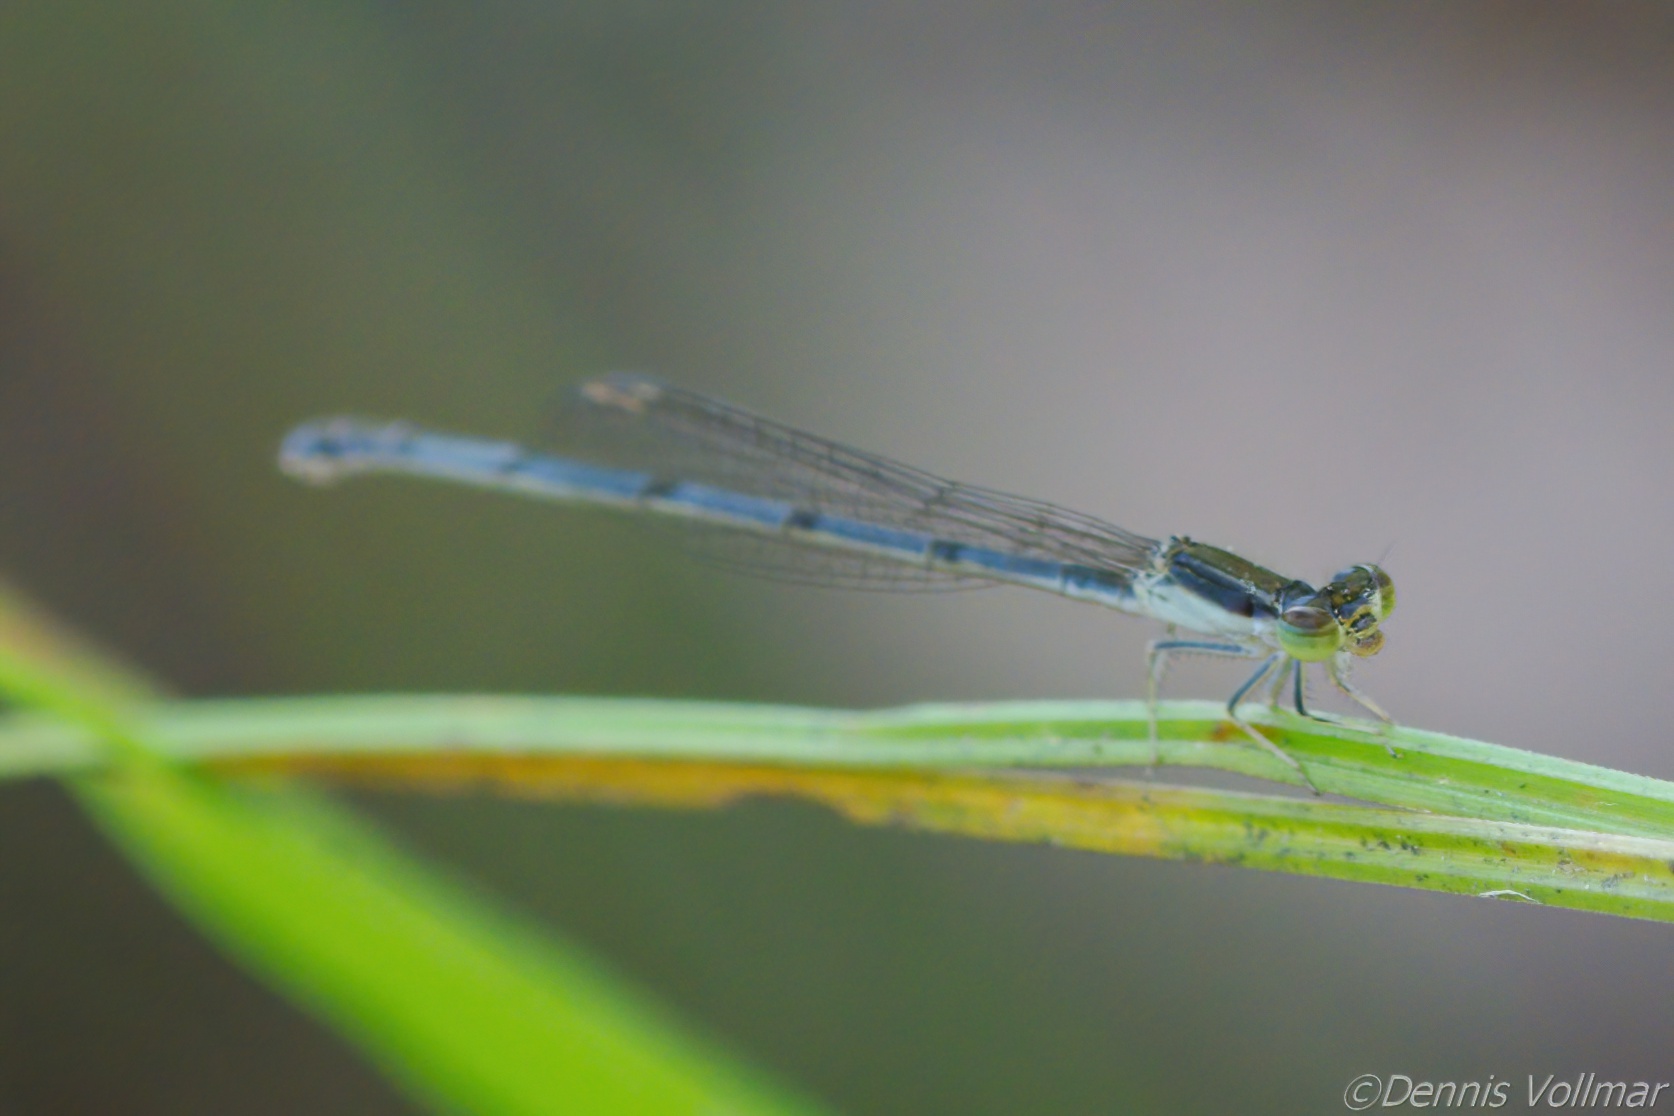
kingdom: Animalia
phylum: Arthropoda
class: Insecta
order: Odonata
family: Coenagrionidae
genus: Ischnura
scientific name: Ischnura hastata
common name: Citrine forktail
